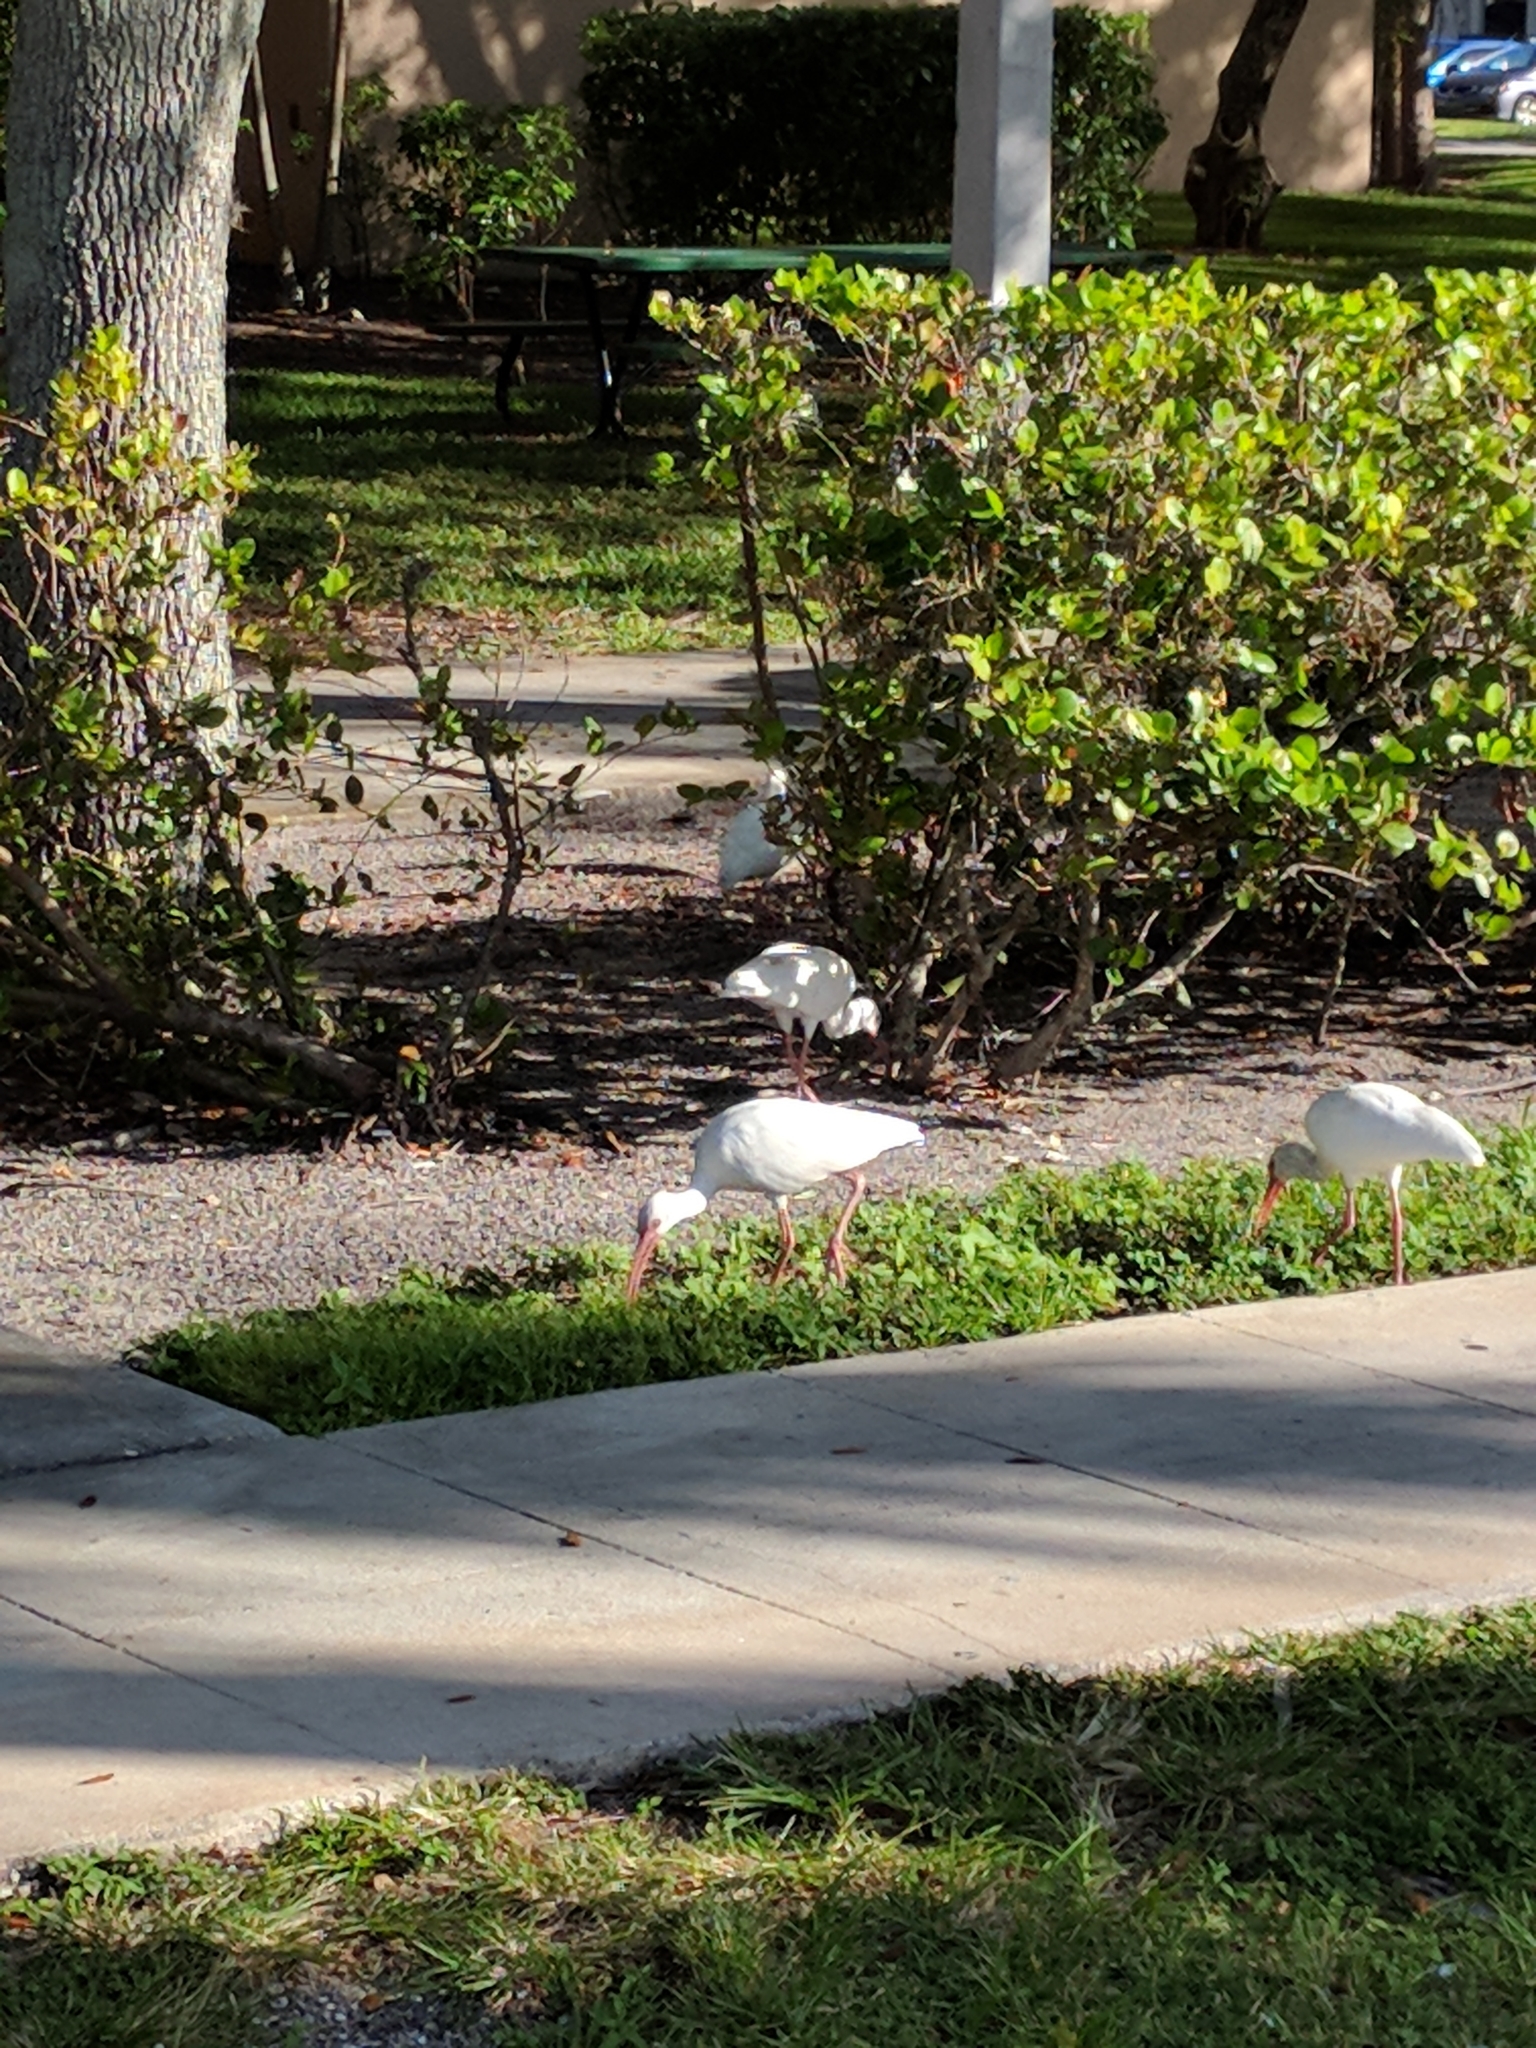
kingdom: Animalia
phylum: Chordata
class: Aves
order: Pelecaniformes
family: Threskiornithidae
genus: Eudocimus
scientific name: Eudocimus albus
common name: White ibis
